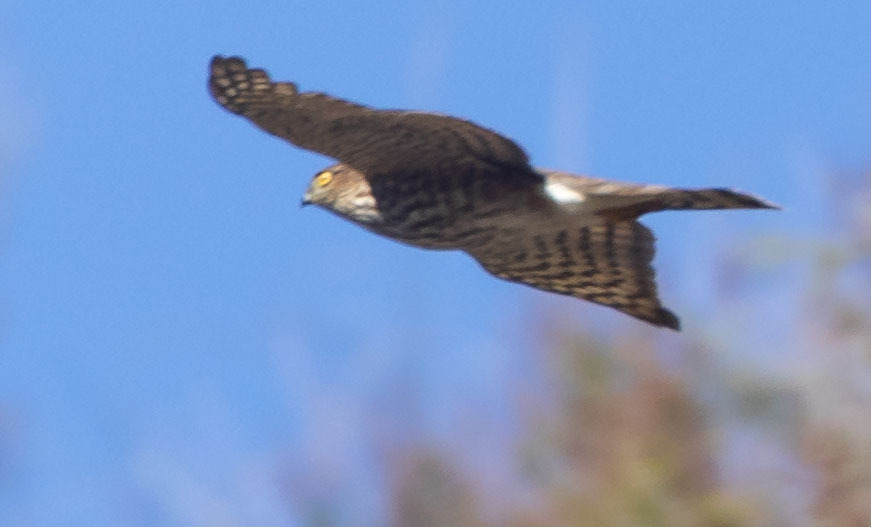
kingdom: Animalia
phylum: Chordata
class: Aves
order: Accipitriformes
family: Accipitridae
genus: Accipiter
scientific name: Accipiter striatus
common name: Sharp-shinned hawk
